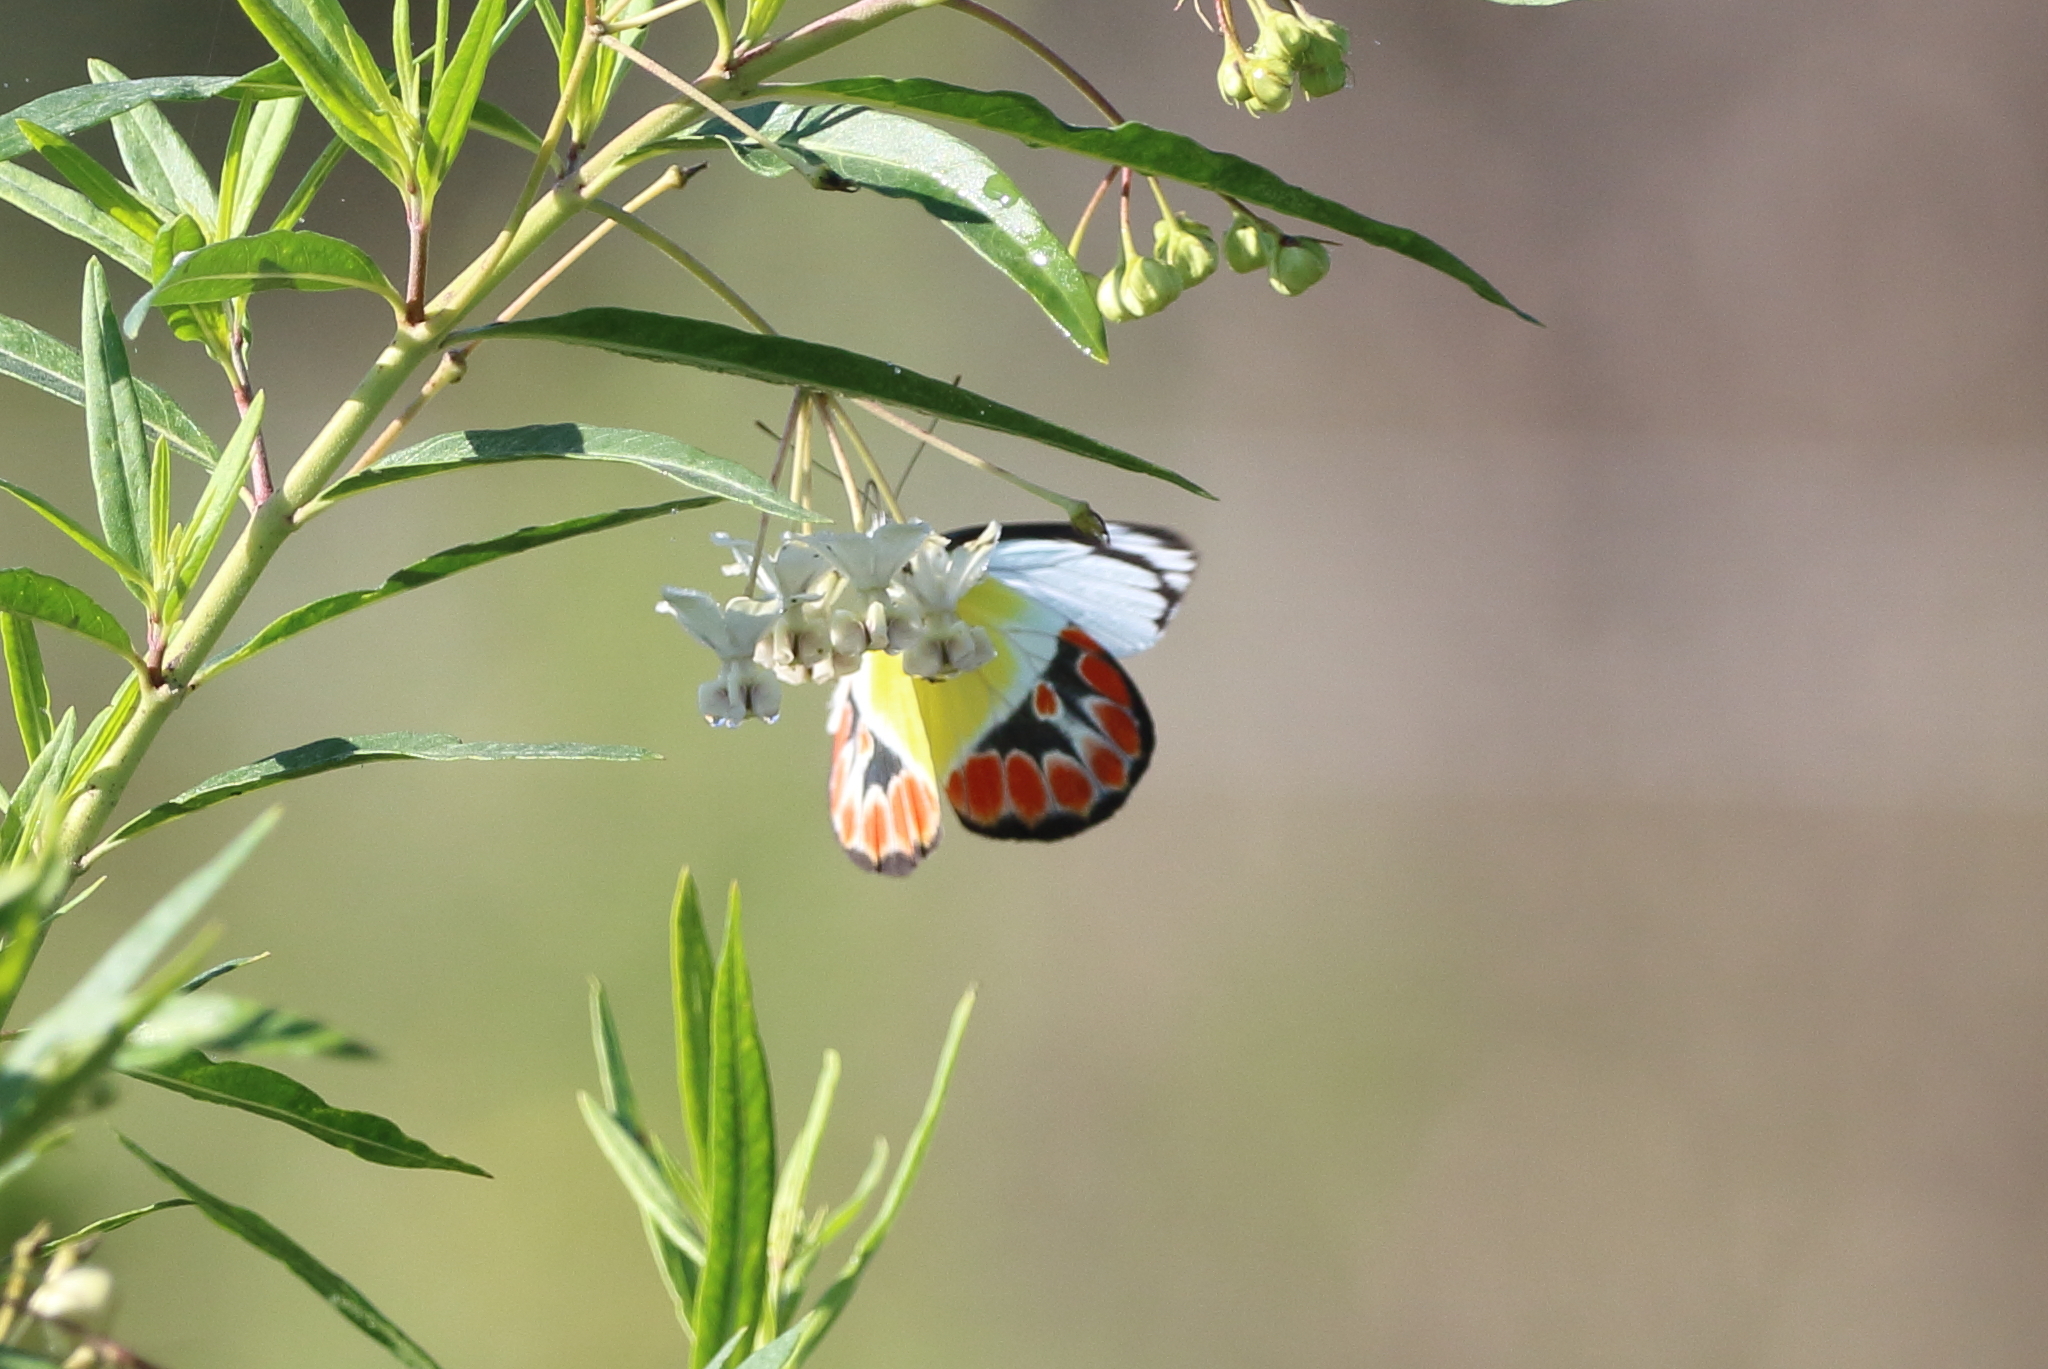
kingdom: Animalia
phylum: Arthropoda
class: Insecta
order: Lepidoptera
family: Pieridae
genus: Delias
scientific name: Delias argenthona
